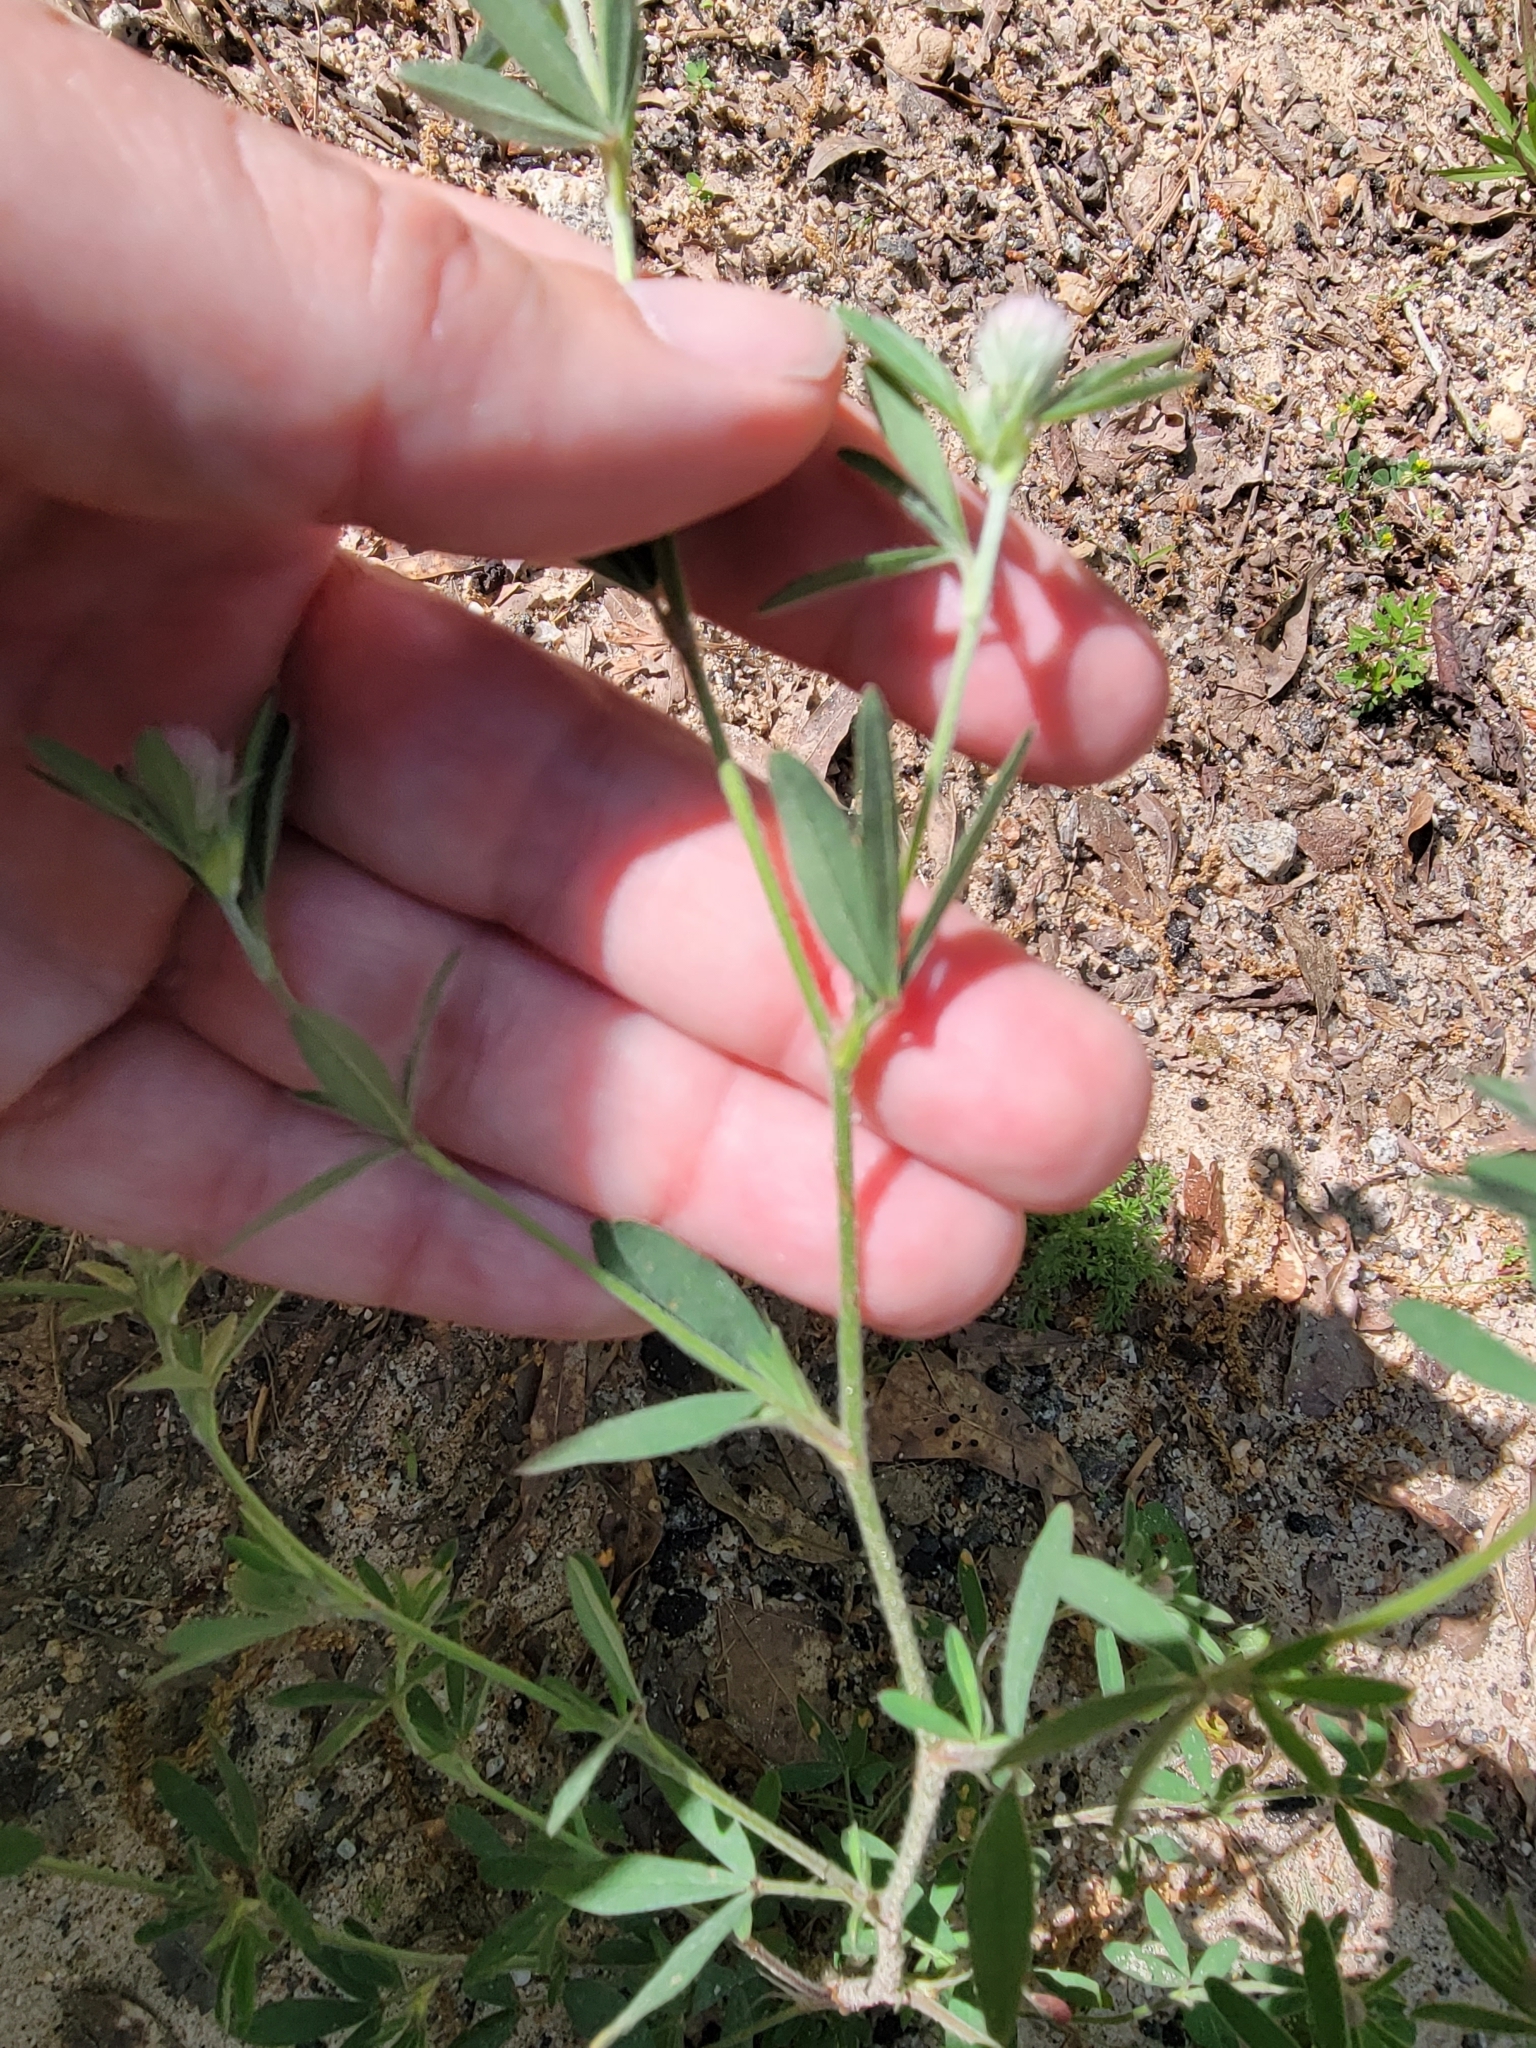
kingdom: Plantae
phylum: Tracheophyta
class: Magnoliopsida
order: Fabales
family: Fabaceae
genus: Trifolium
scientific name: Trifolium arvense
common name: Hare's-foot clover
